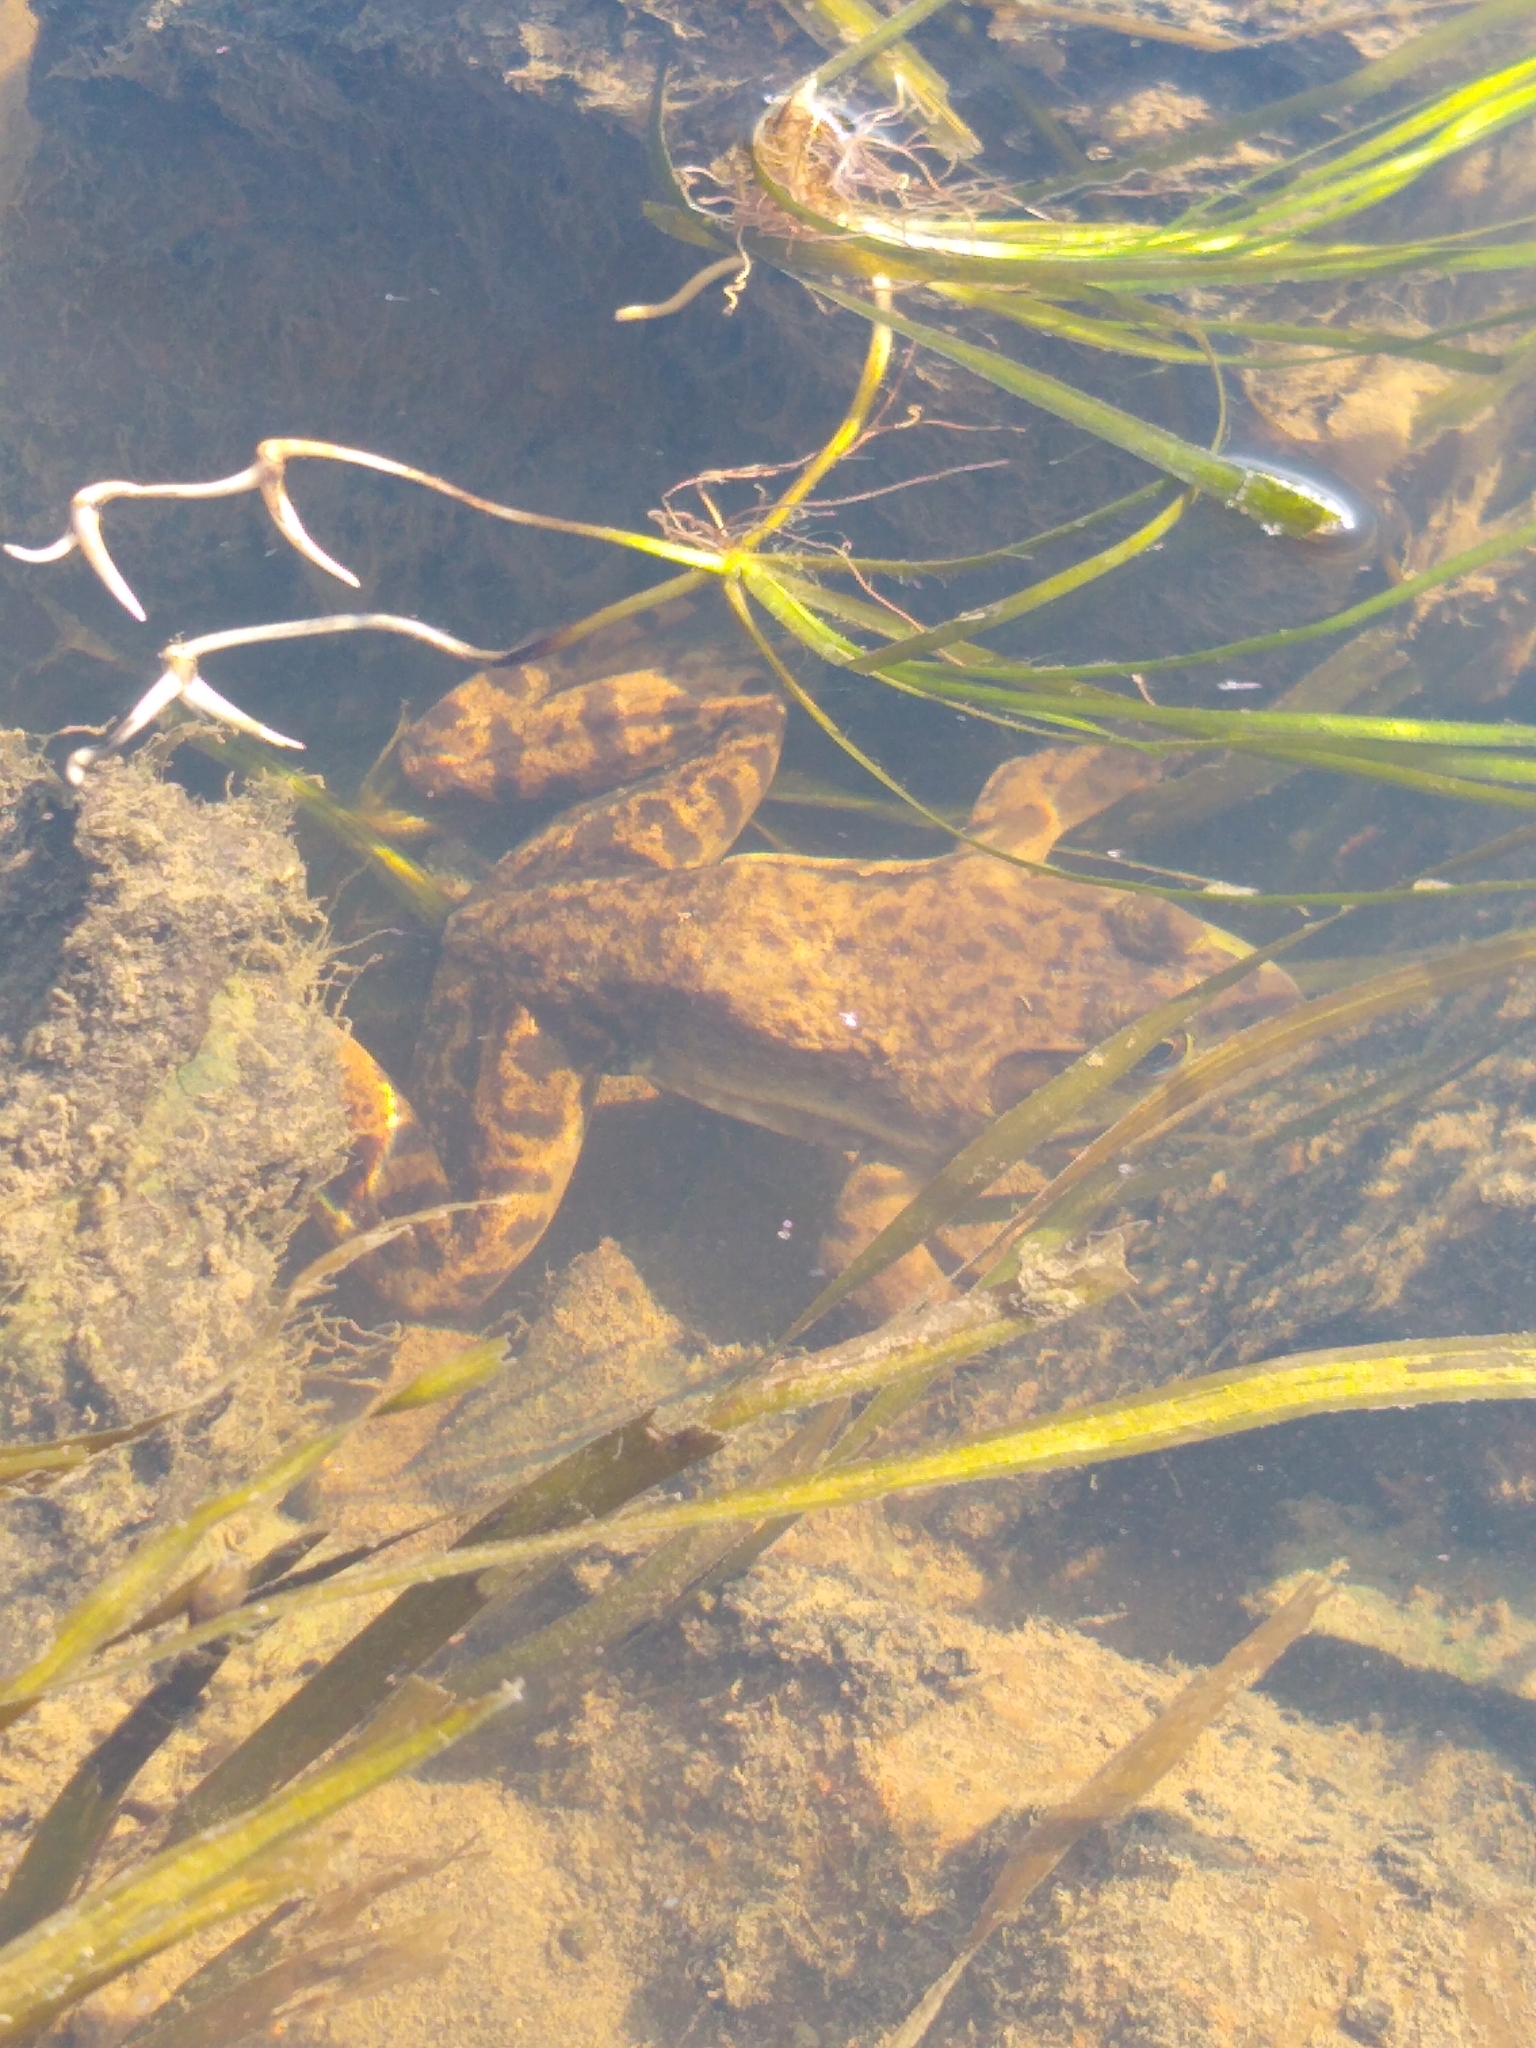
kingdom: Animalia
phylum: Chordata
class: Amphibia
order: Anura
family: Ranidae
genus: Lithobates
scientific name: Lithobates catesbeianus
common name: American bullfrog
